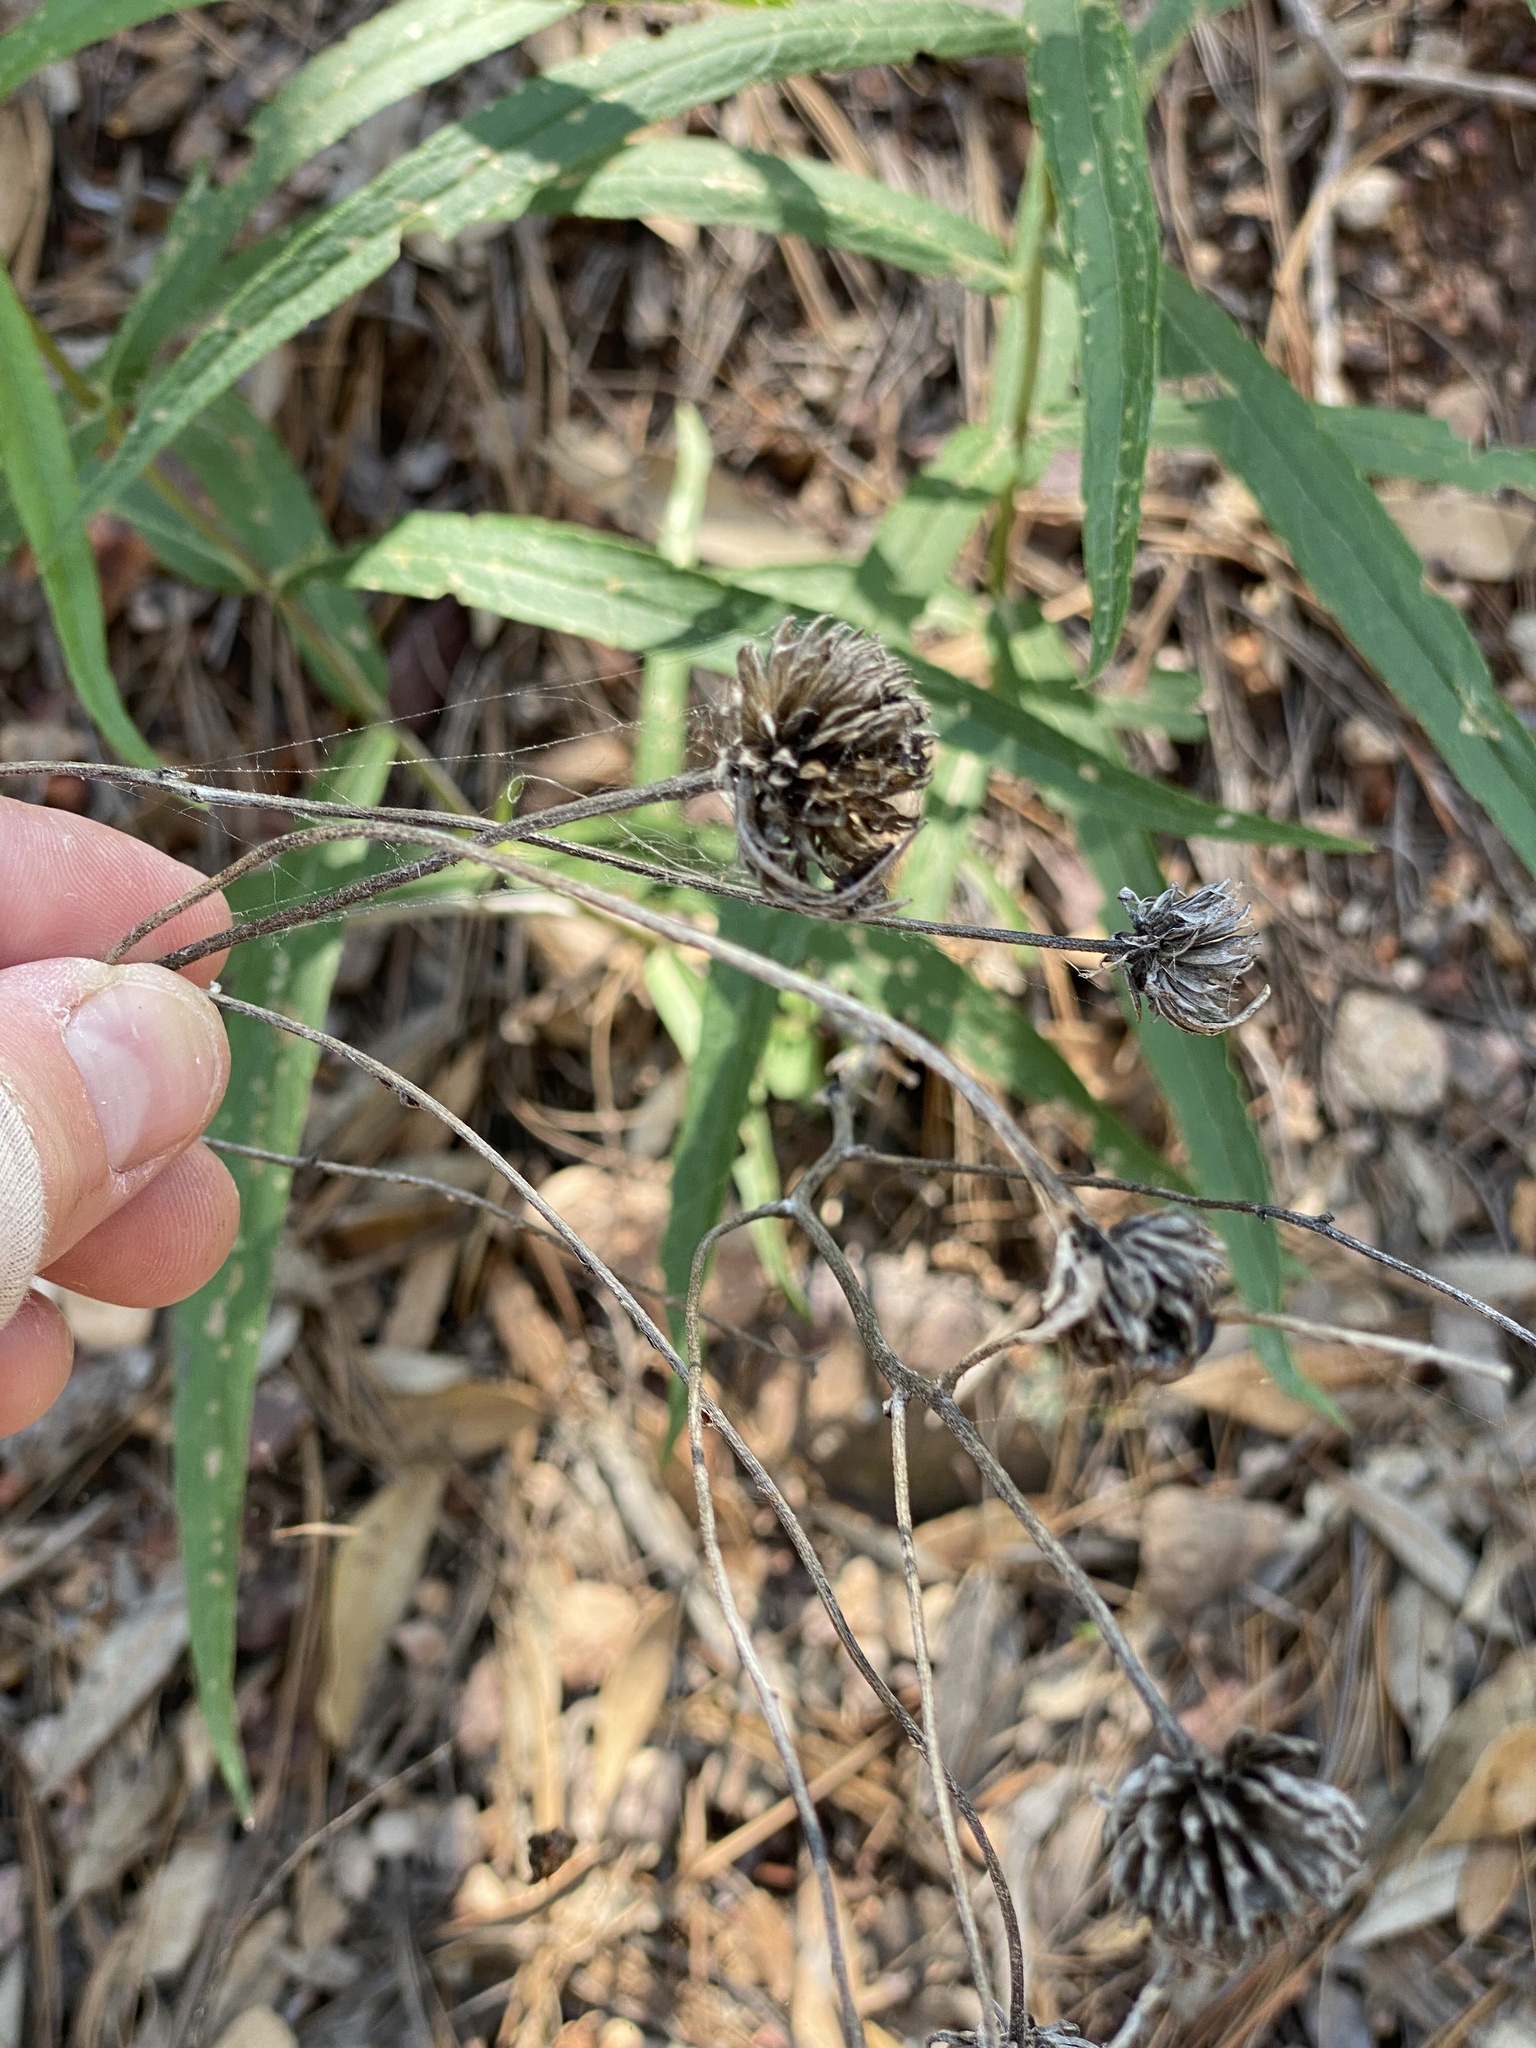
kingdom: Plantae
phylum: Tracheophyta
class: Magnoliopsida
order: Asterales
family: Asteraceae
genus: Verbesina
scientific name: Verbesina longifolia
